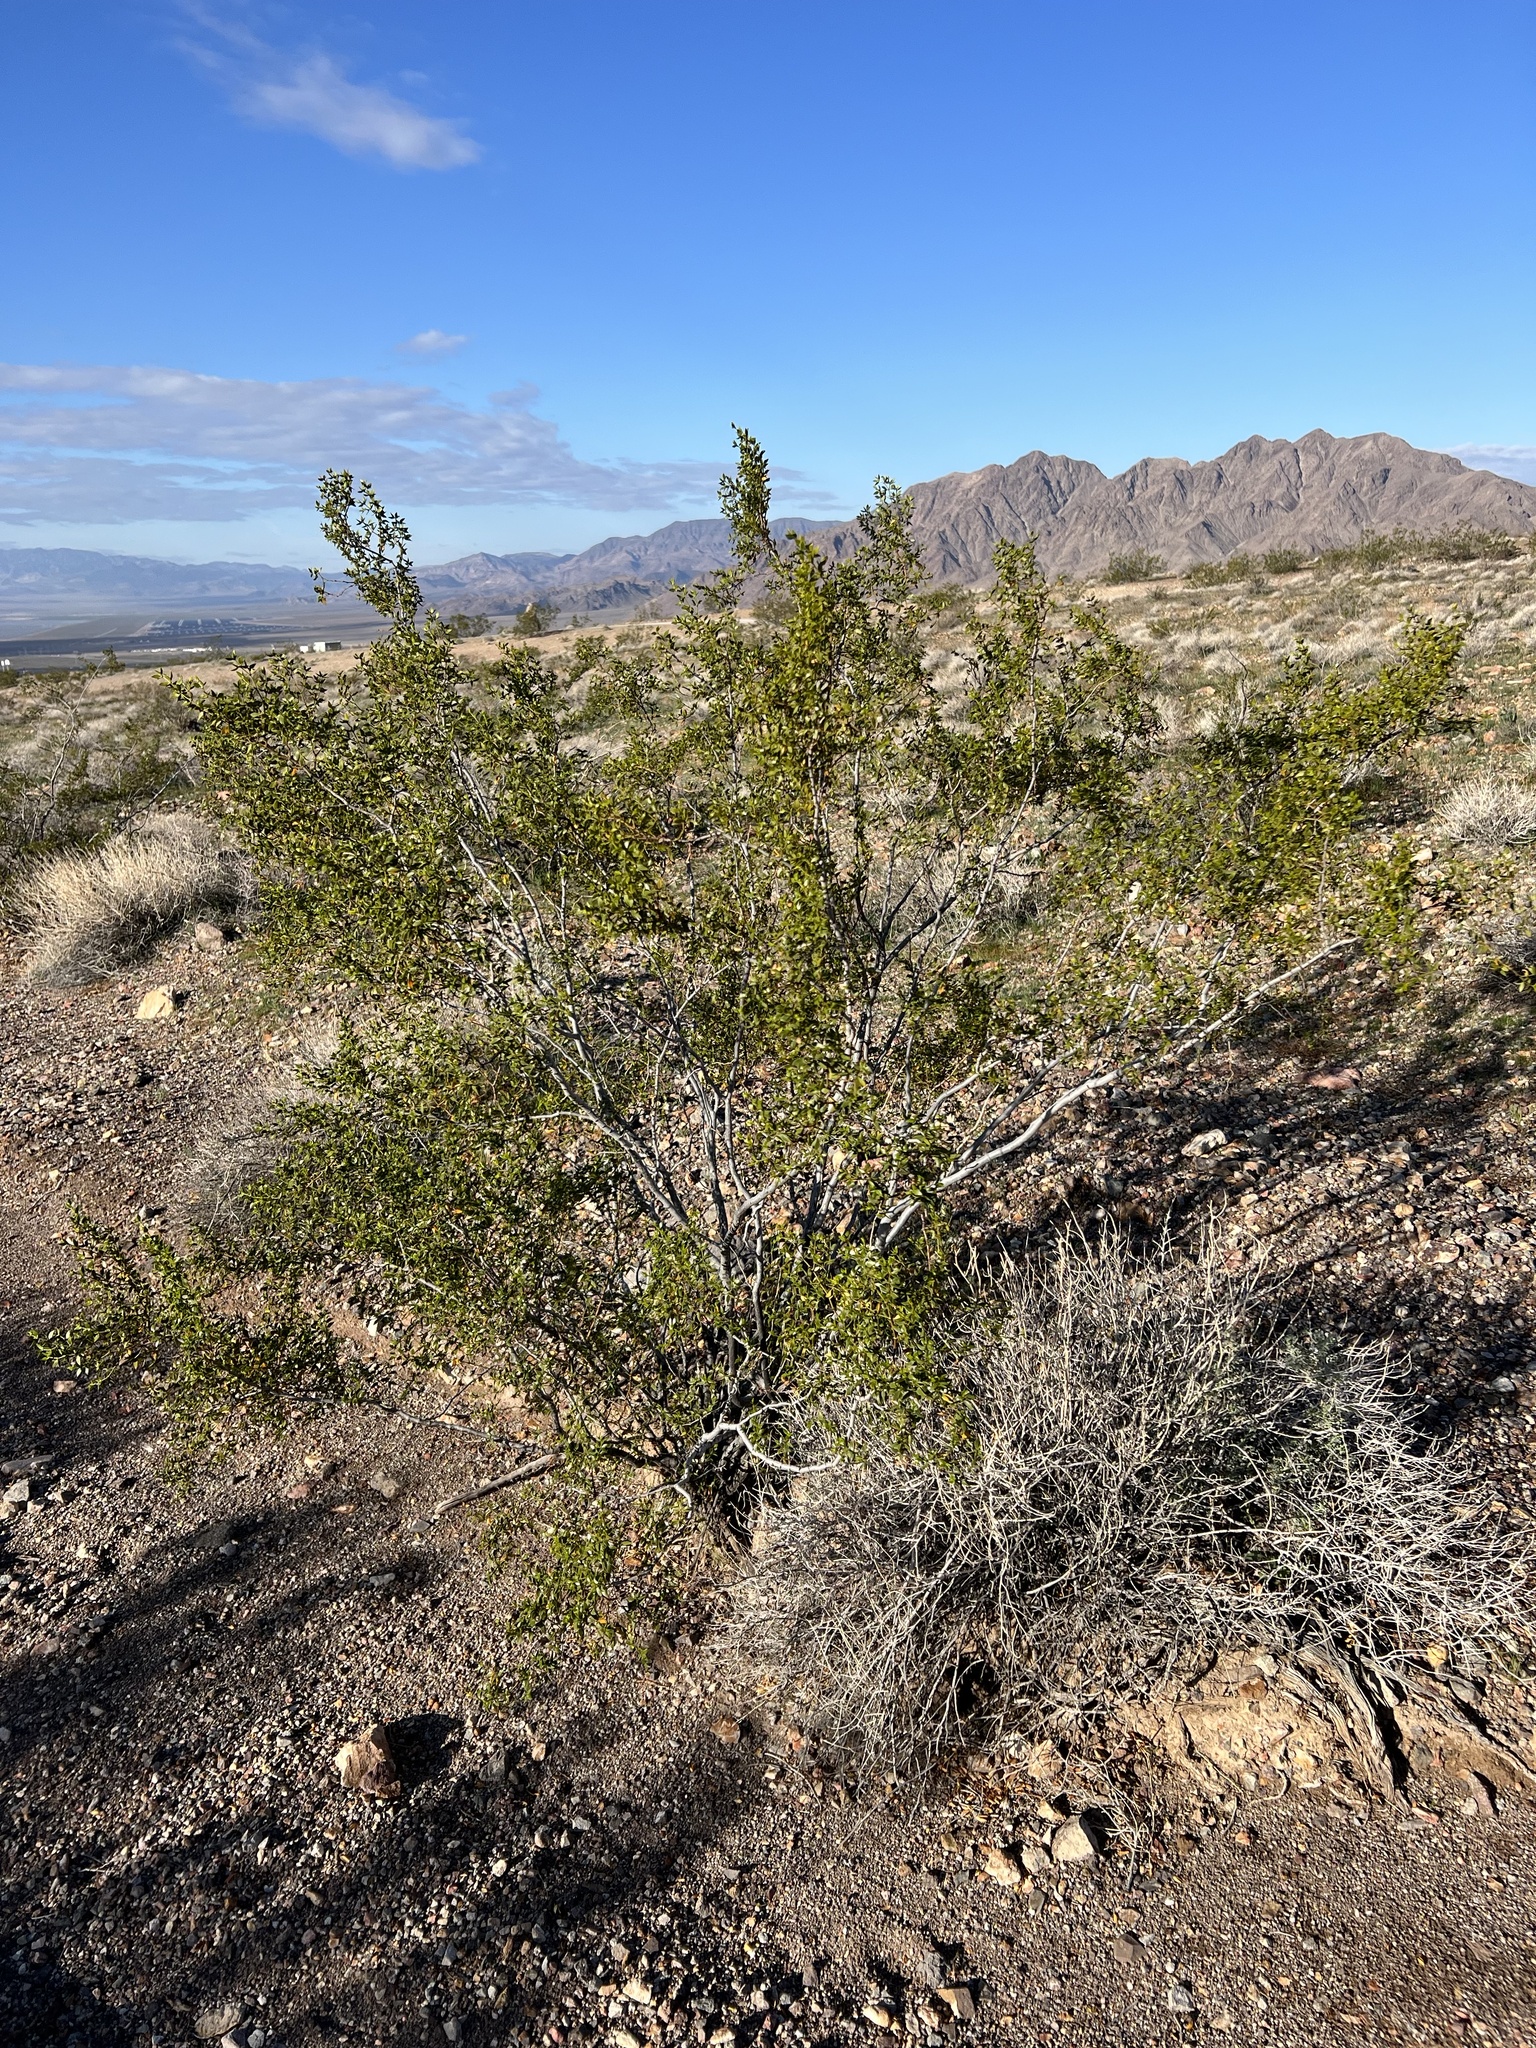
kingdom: Plantae
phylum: Tracheophyta
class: Magnoliopsida
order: Zygophyllales
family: Zygophyllaceae
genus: Larrea
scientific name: Larrea tridentata
